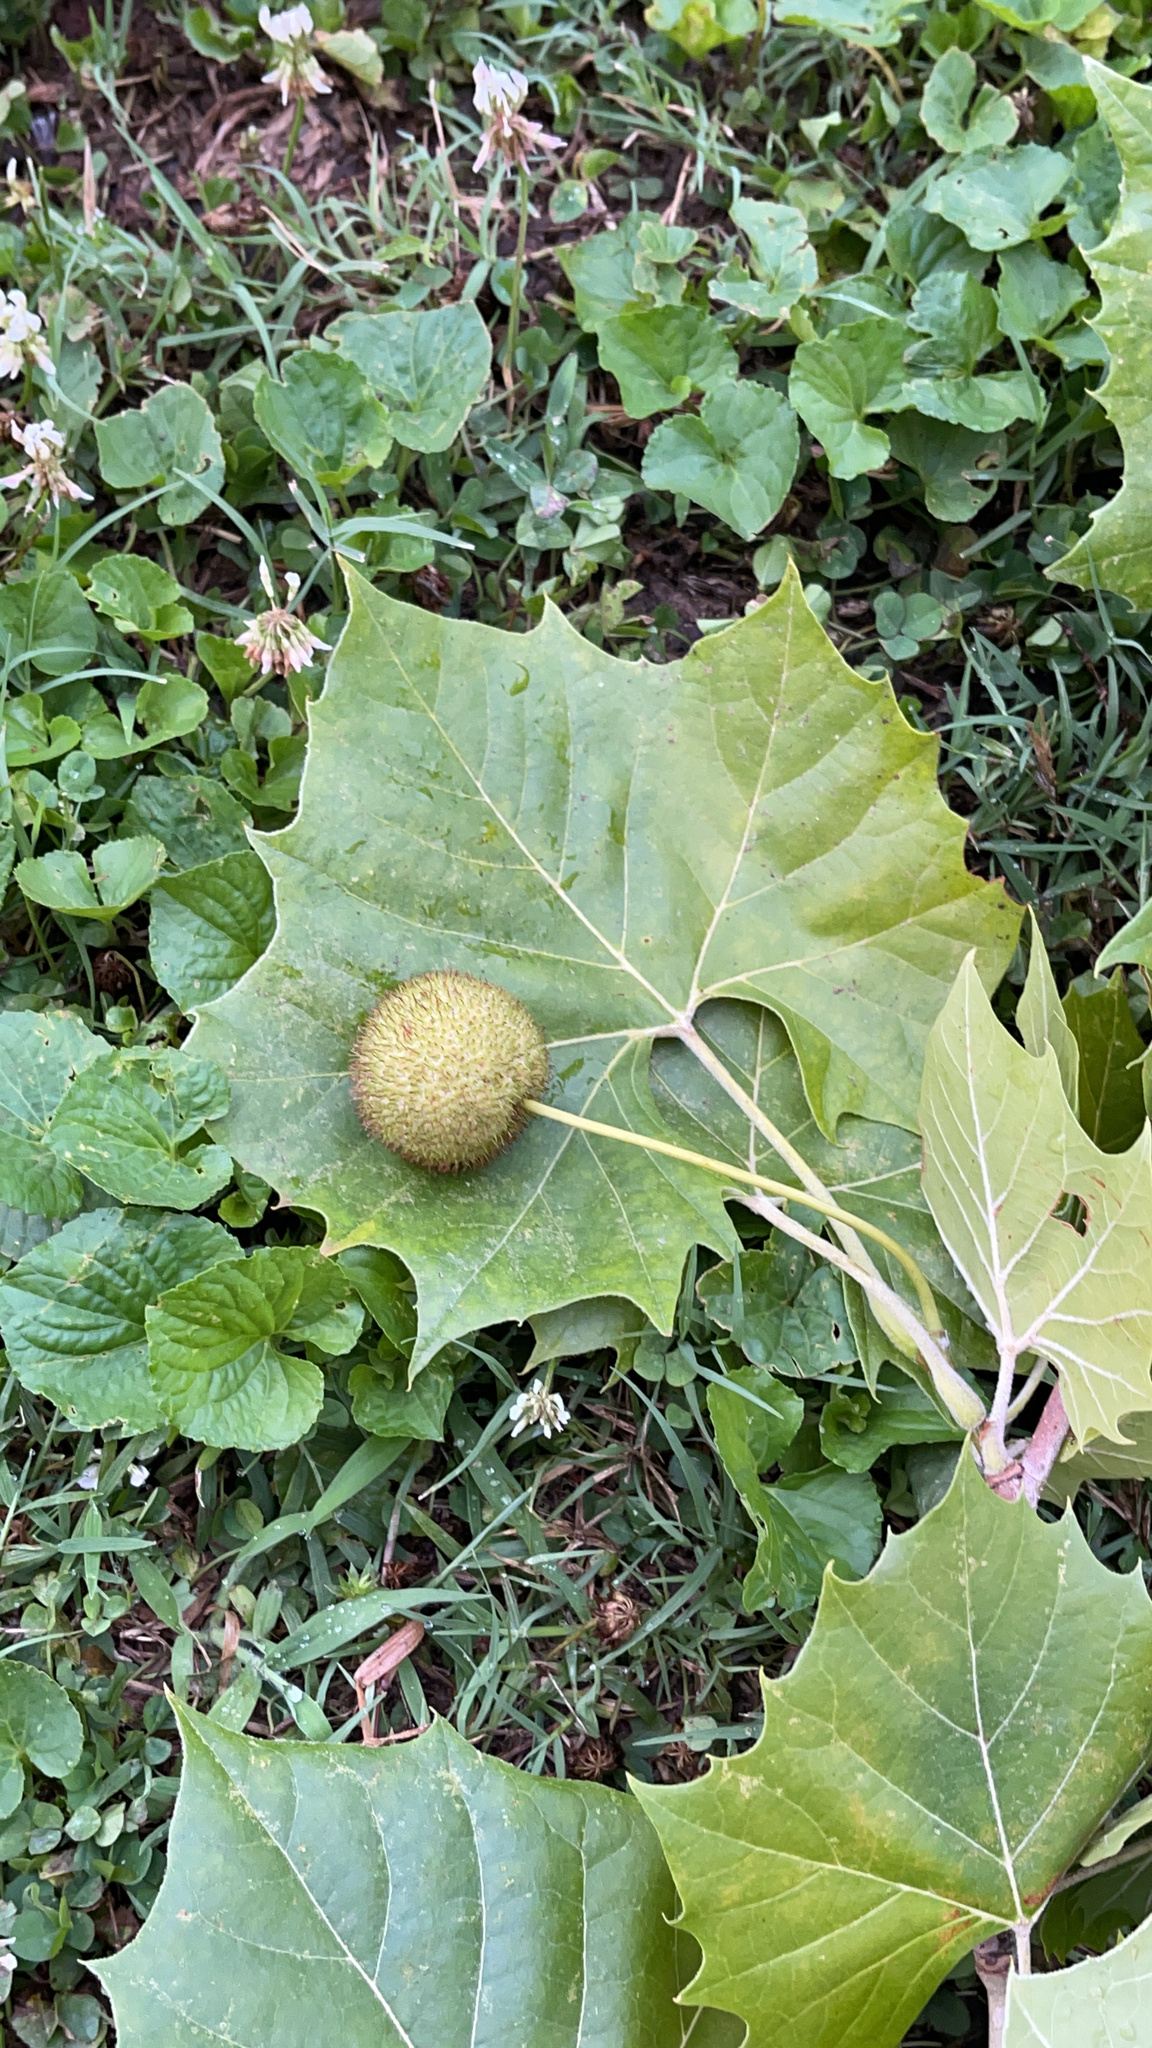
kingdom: Plantae
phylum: Tracheophyta
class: Magnoliopsida
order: Proteales
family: Platanaceae
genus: Platanus
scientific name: Platanus occidentalis
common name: American sycamore
